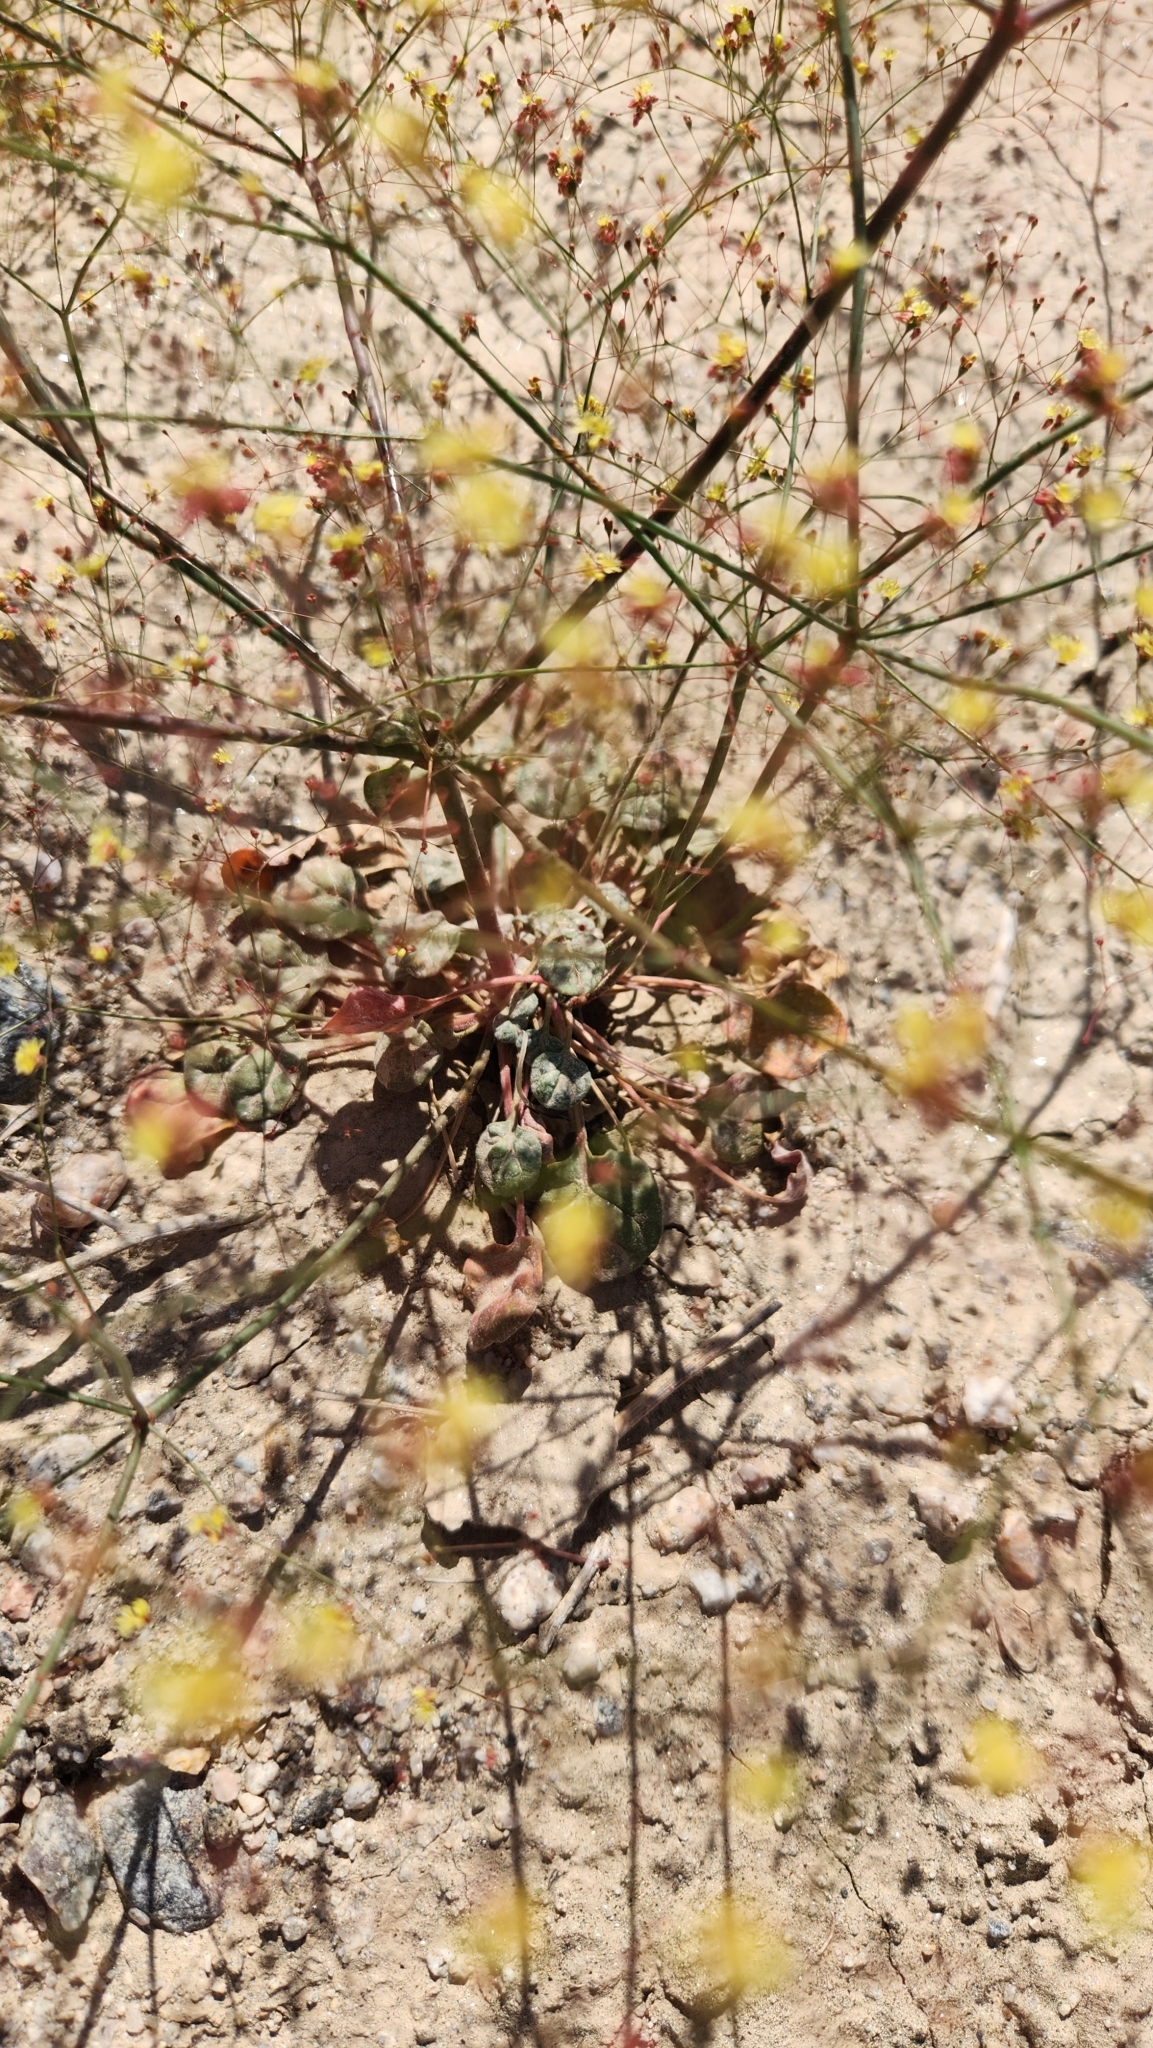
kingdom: Plantae
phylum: Tracheophyta
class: Magnoliopsida
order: Caryophyllales
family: Polygonaceae
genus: Eriogonum
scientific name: Eriogonum thomasii
